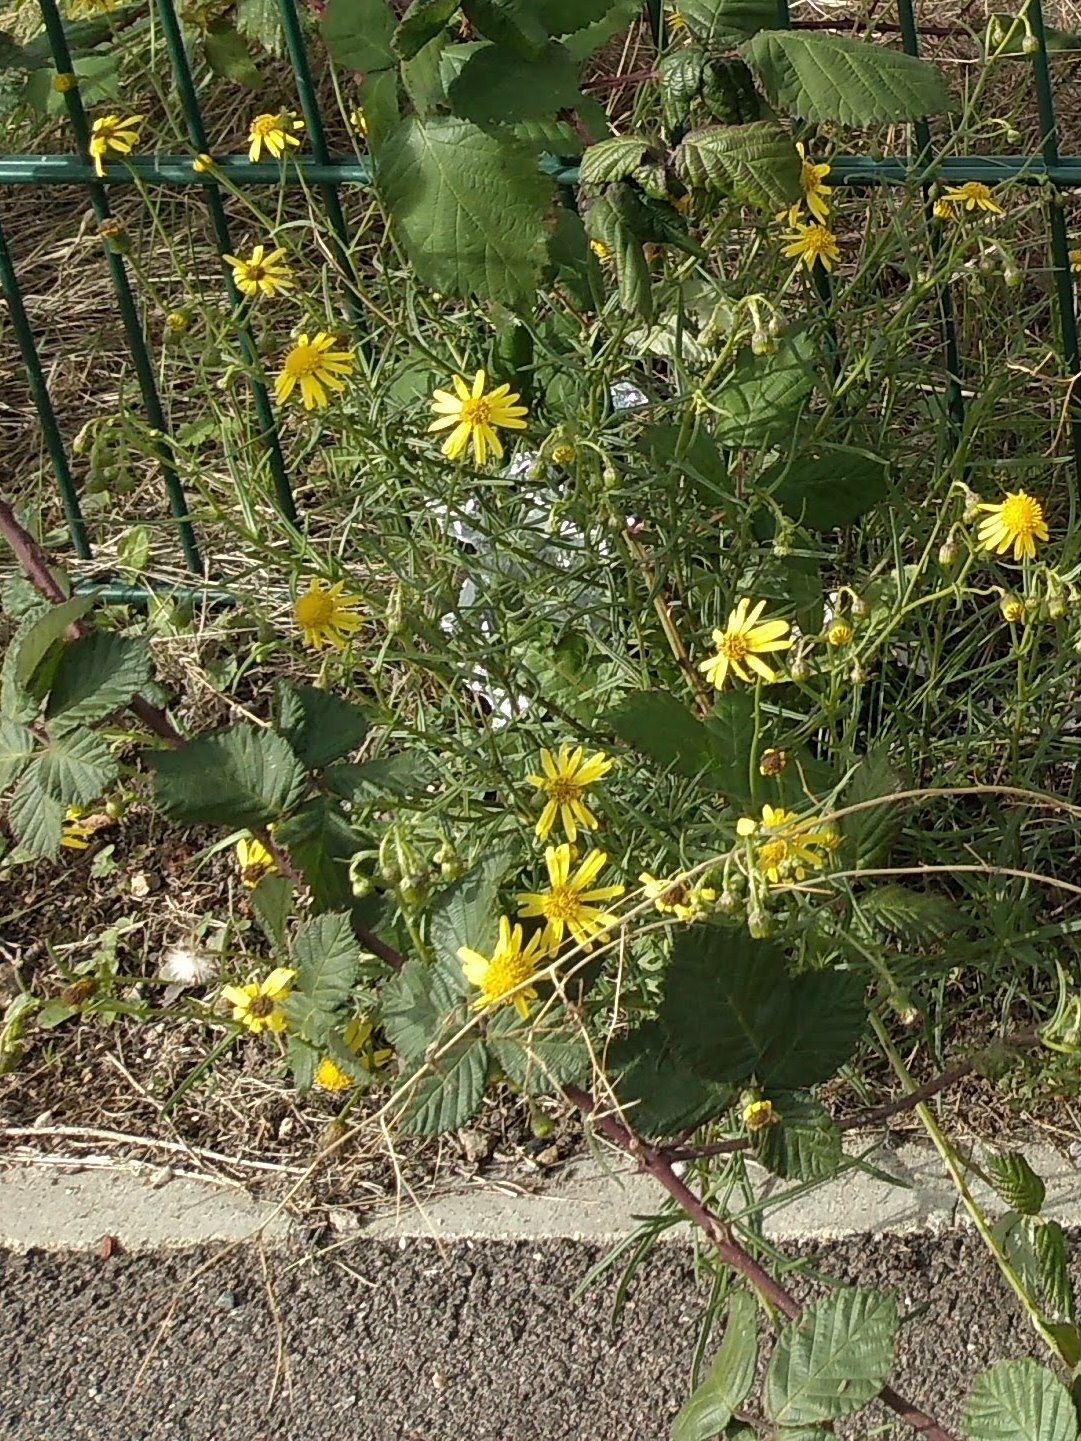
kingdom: Plantae
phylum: Tracheophyta
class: Magnoliopsida
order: Asterales
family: Asteraceae
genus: Senecio
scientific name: Senecio inaequidens
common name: Narrow-leaved ragwort
